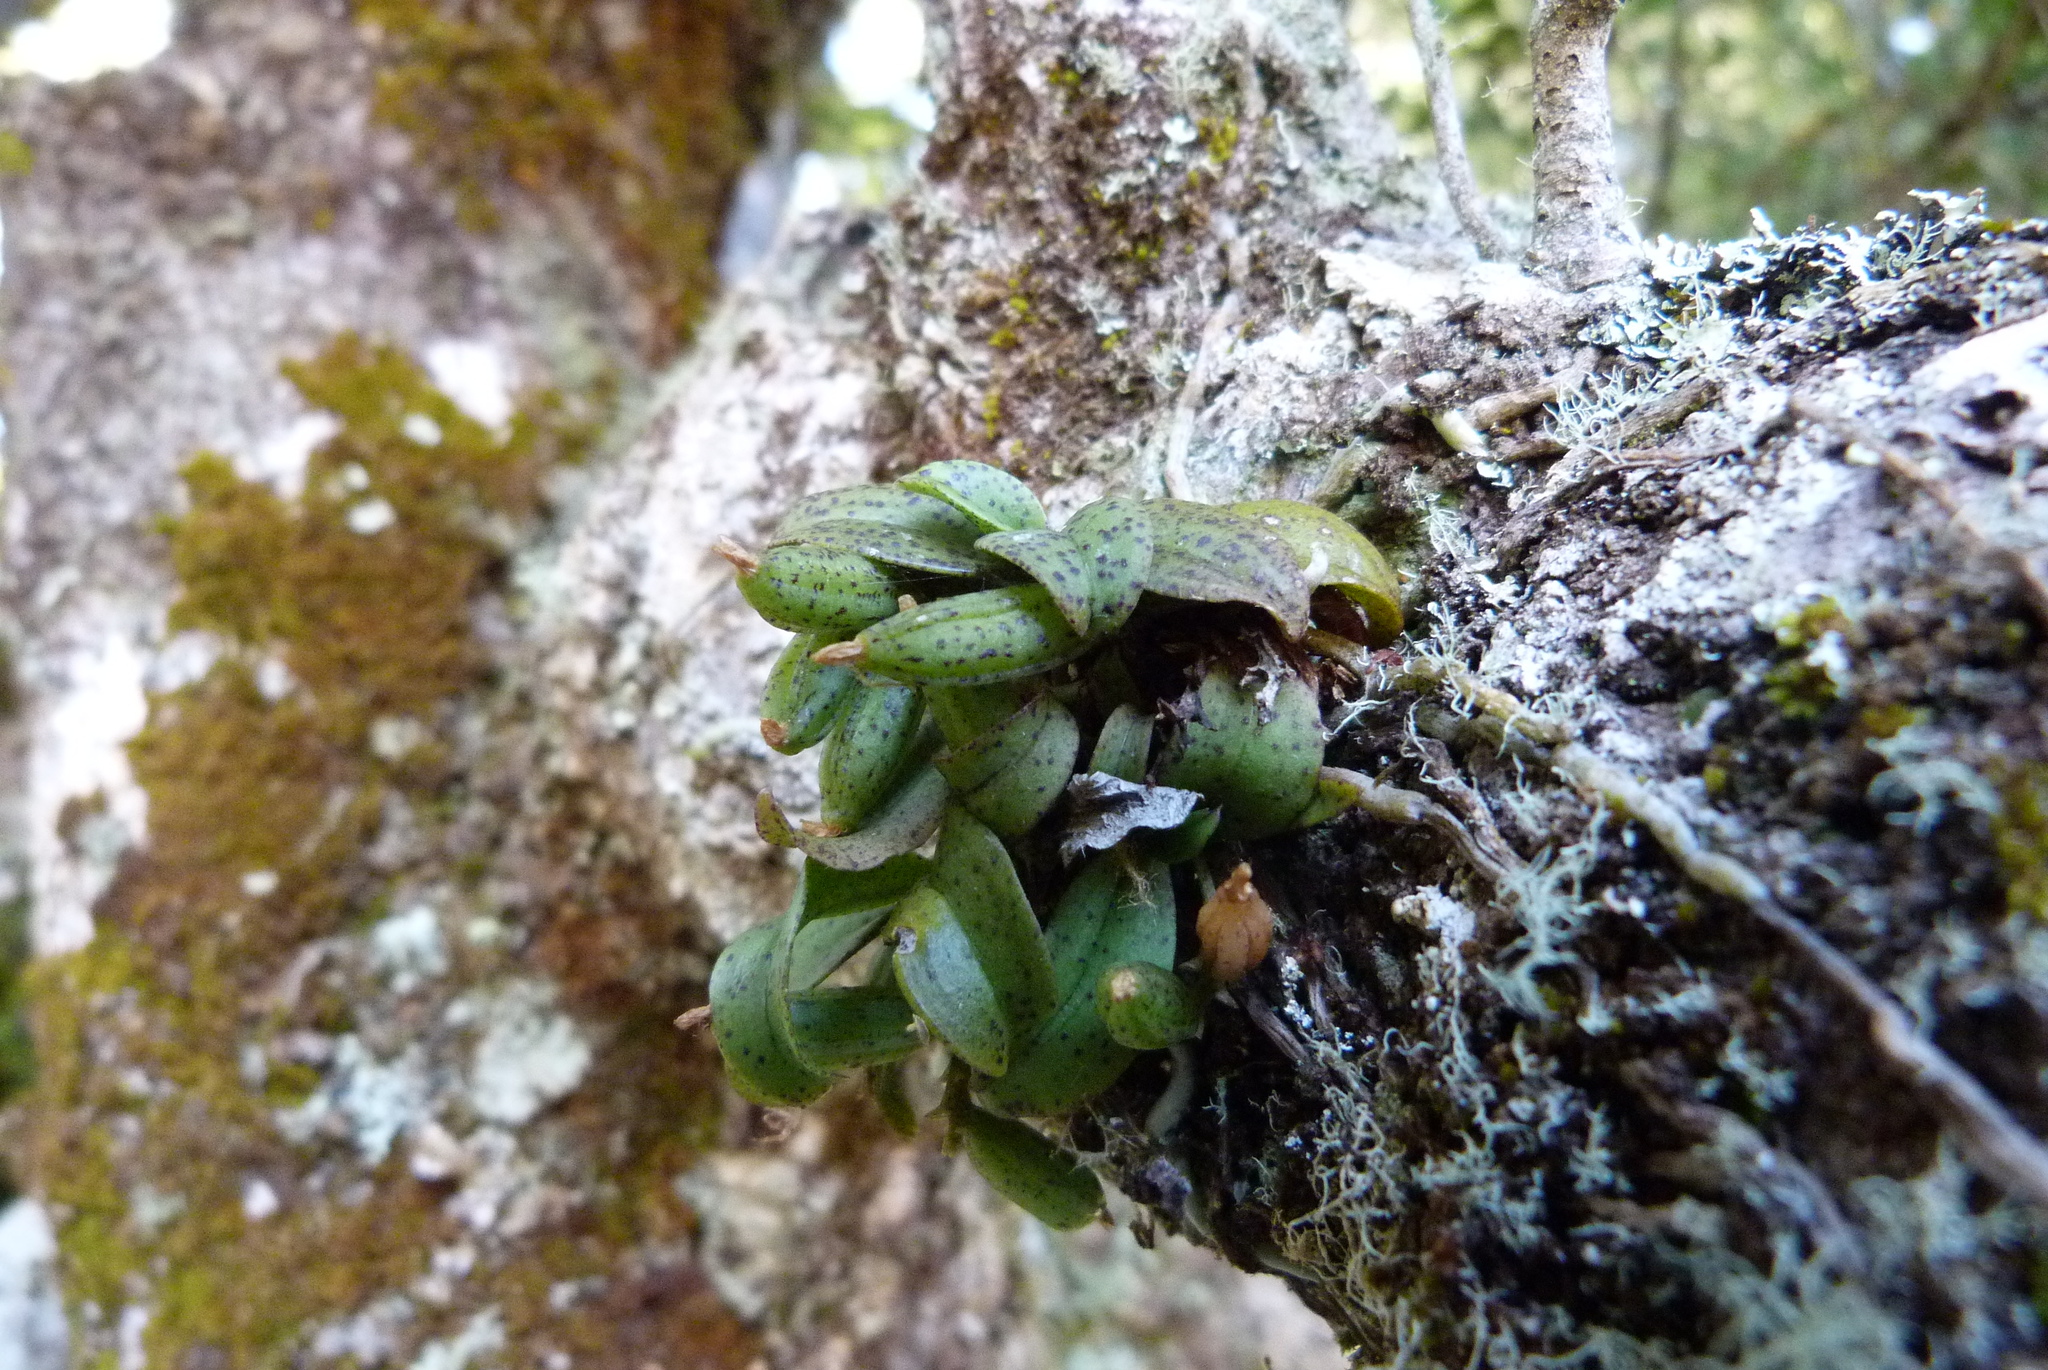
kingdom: Plantae
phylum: Tracheophyta
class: Liliopsida
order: Asparagales
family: Orchidaceae
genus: Drymoanthus
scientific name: Drymoanthus flavus
